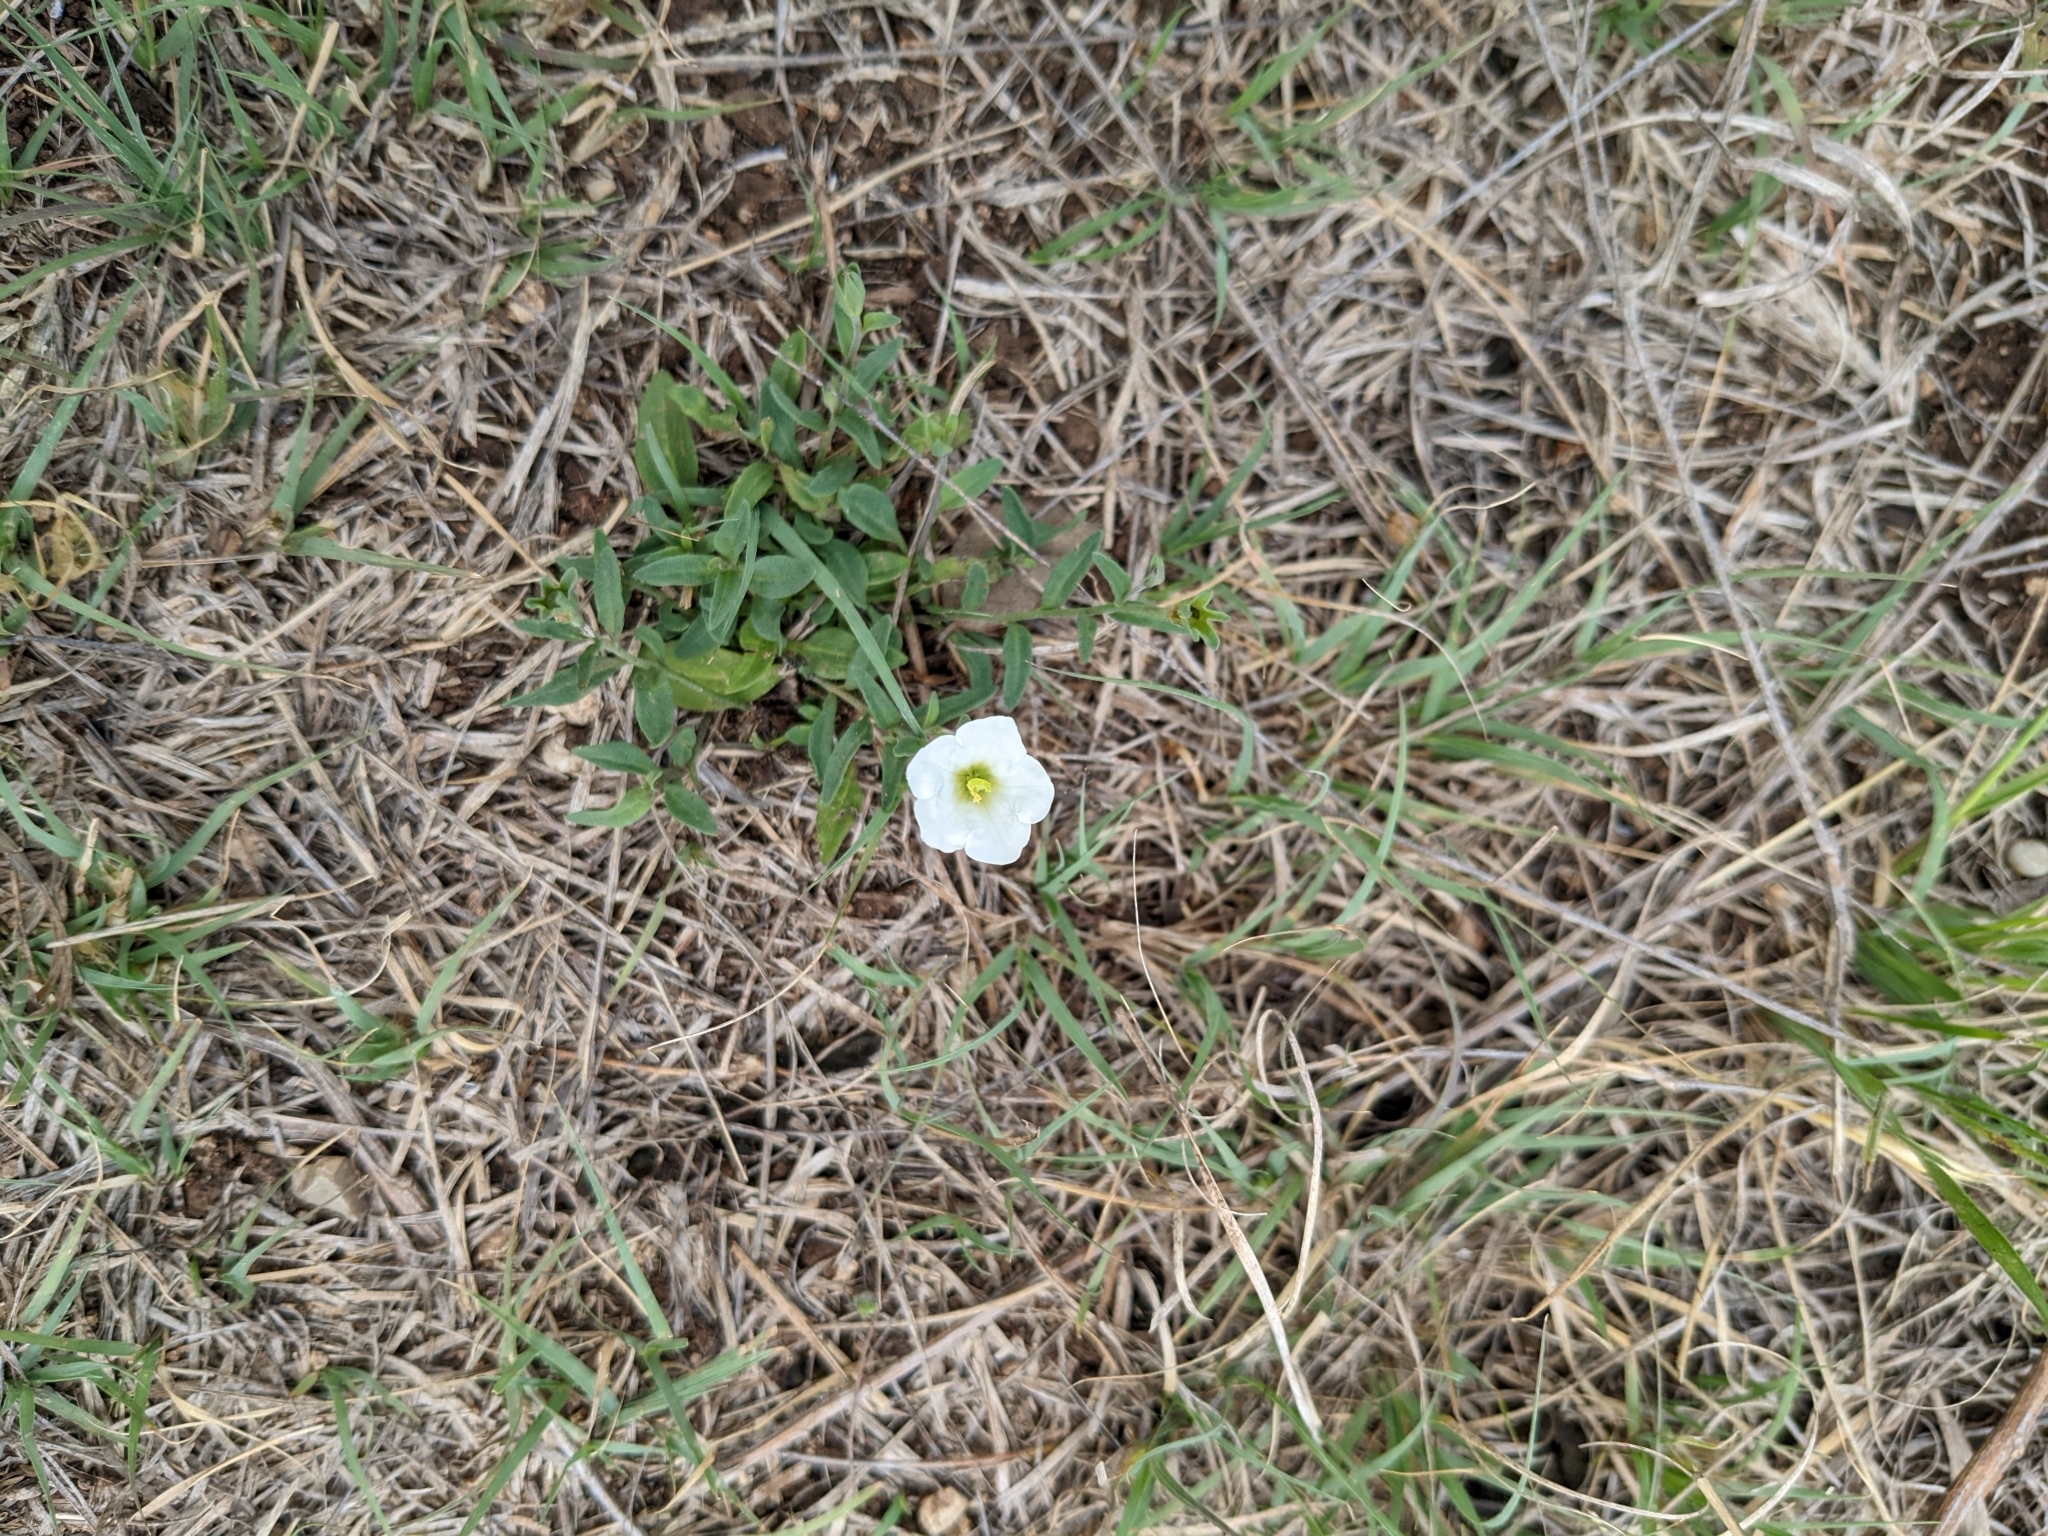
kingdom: Plantae
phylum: Tracheophyta
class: Magnoliopsida
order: Solanales
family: Solanaceae
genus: Salpiglossis
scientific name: Salpiglossis erecta
